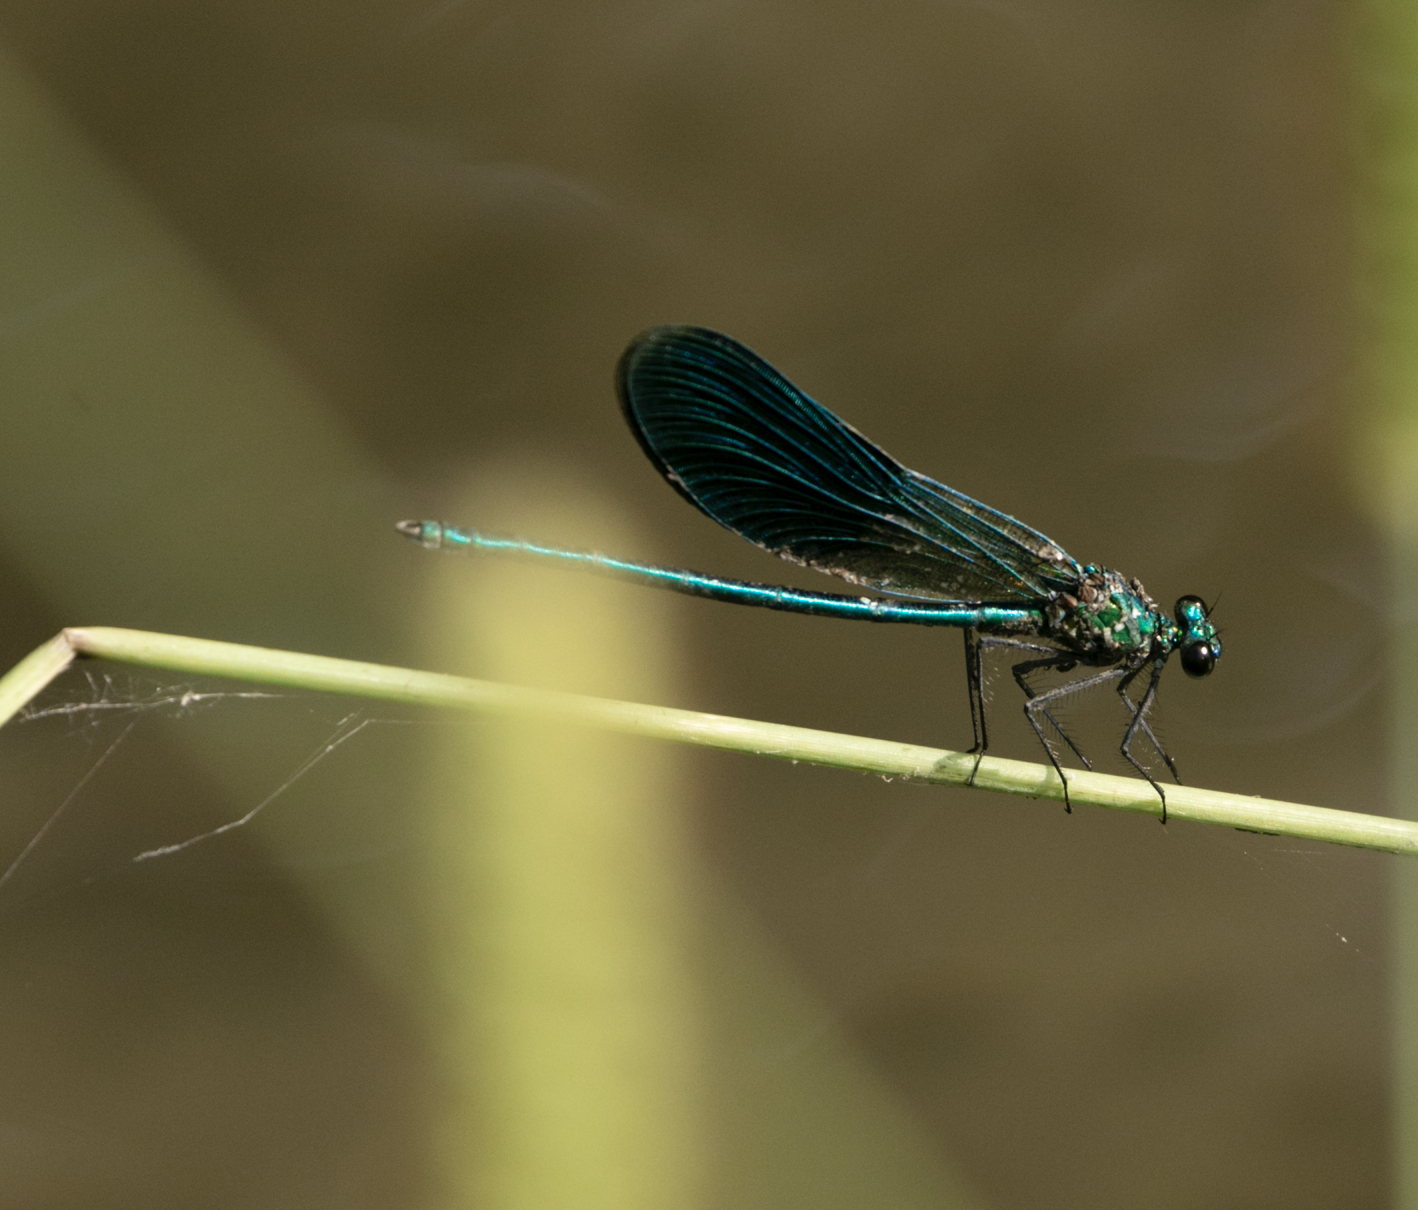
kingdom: Animalia
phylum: Arthropoda
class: Insecta
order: Odonata
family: Calopterygidae
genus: Calopteryx
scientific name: Calopteryx splendens
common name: Banded demoiselle
